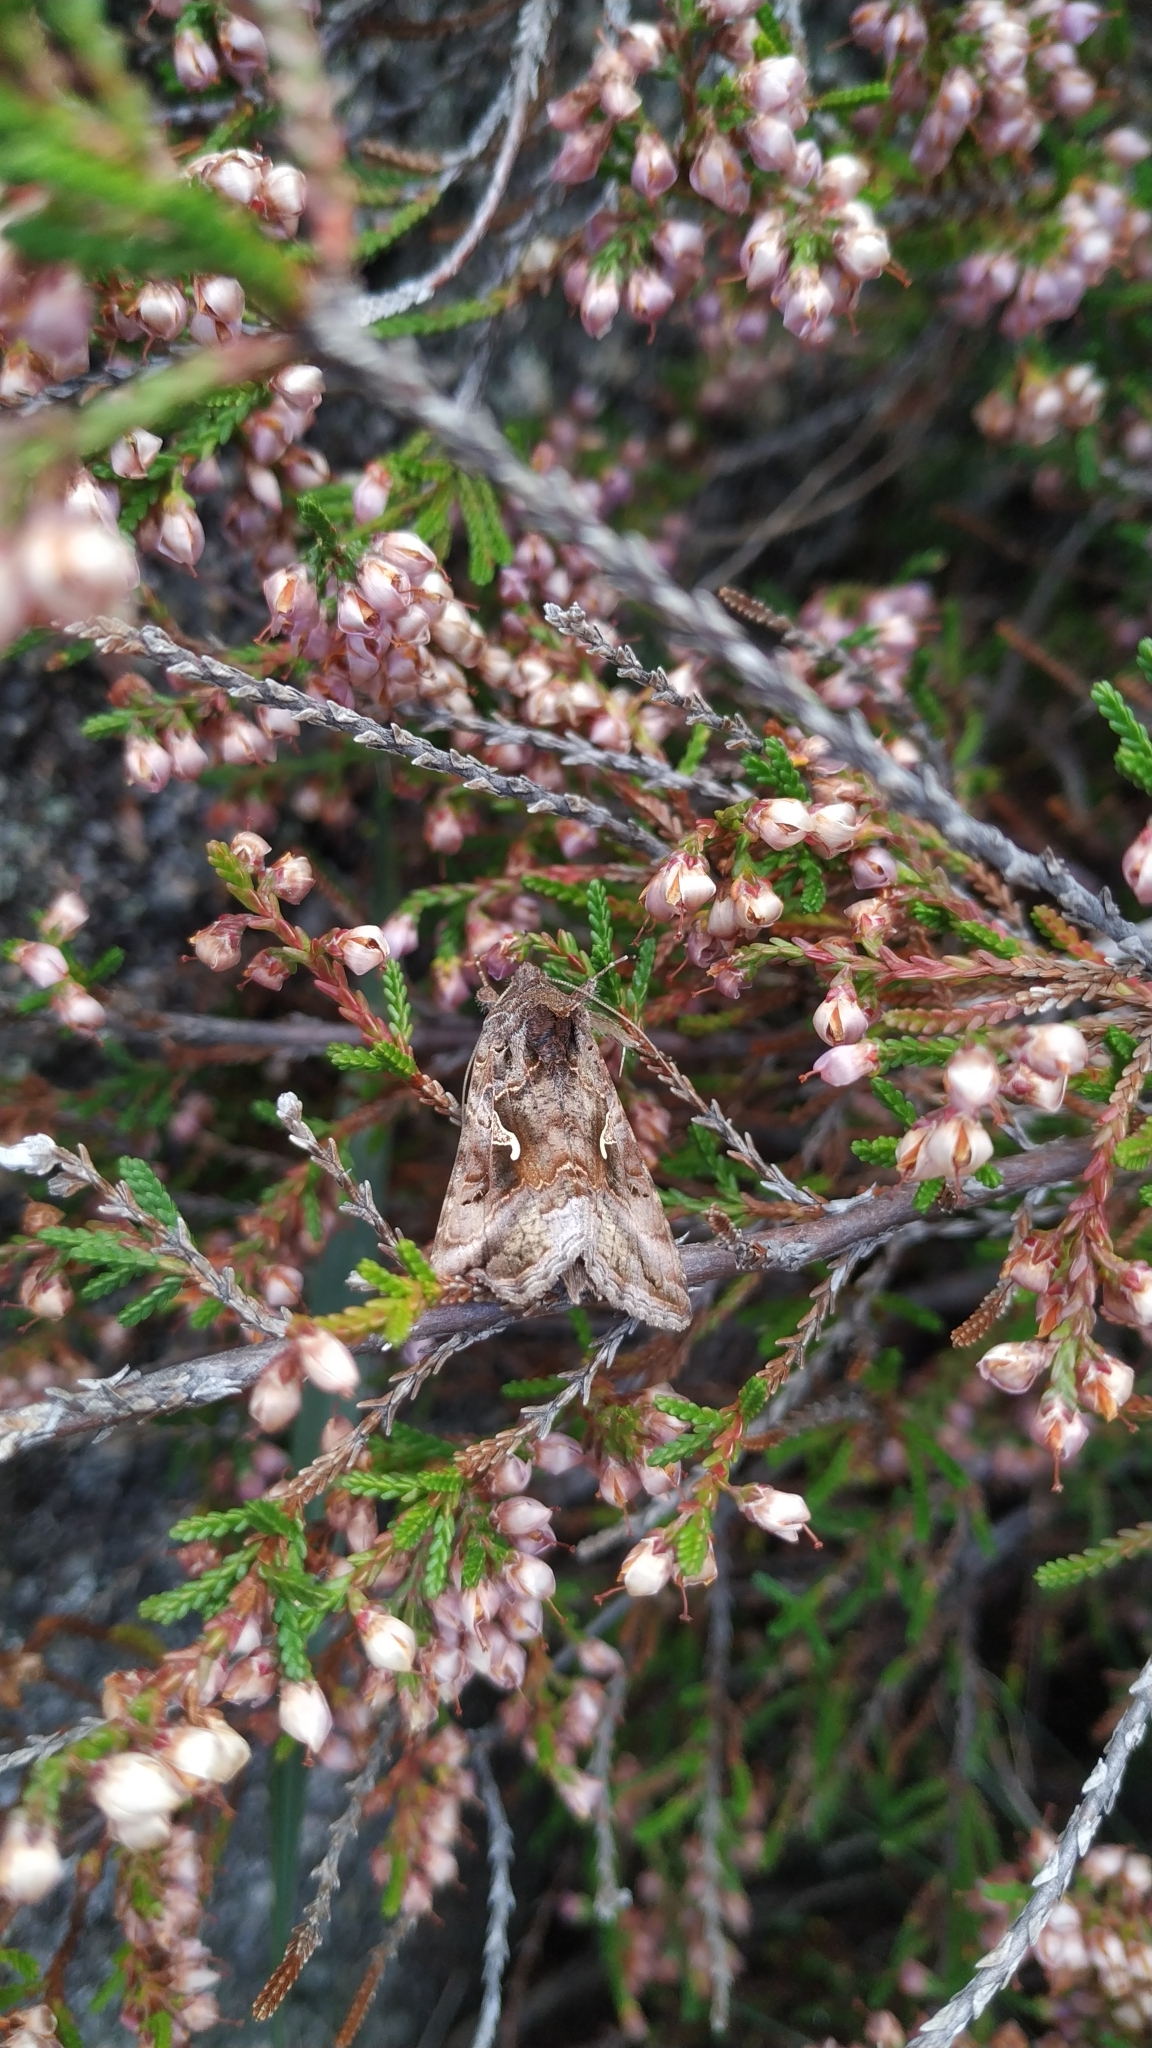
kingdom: Animalia
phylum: Arthropoda
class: Insecta
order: Lepidoptera
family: Noctuidae
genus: Autographa
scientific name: Autographa gamma
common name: Silver y
